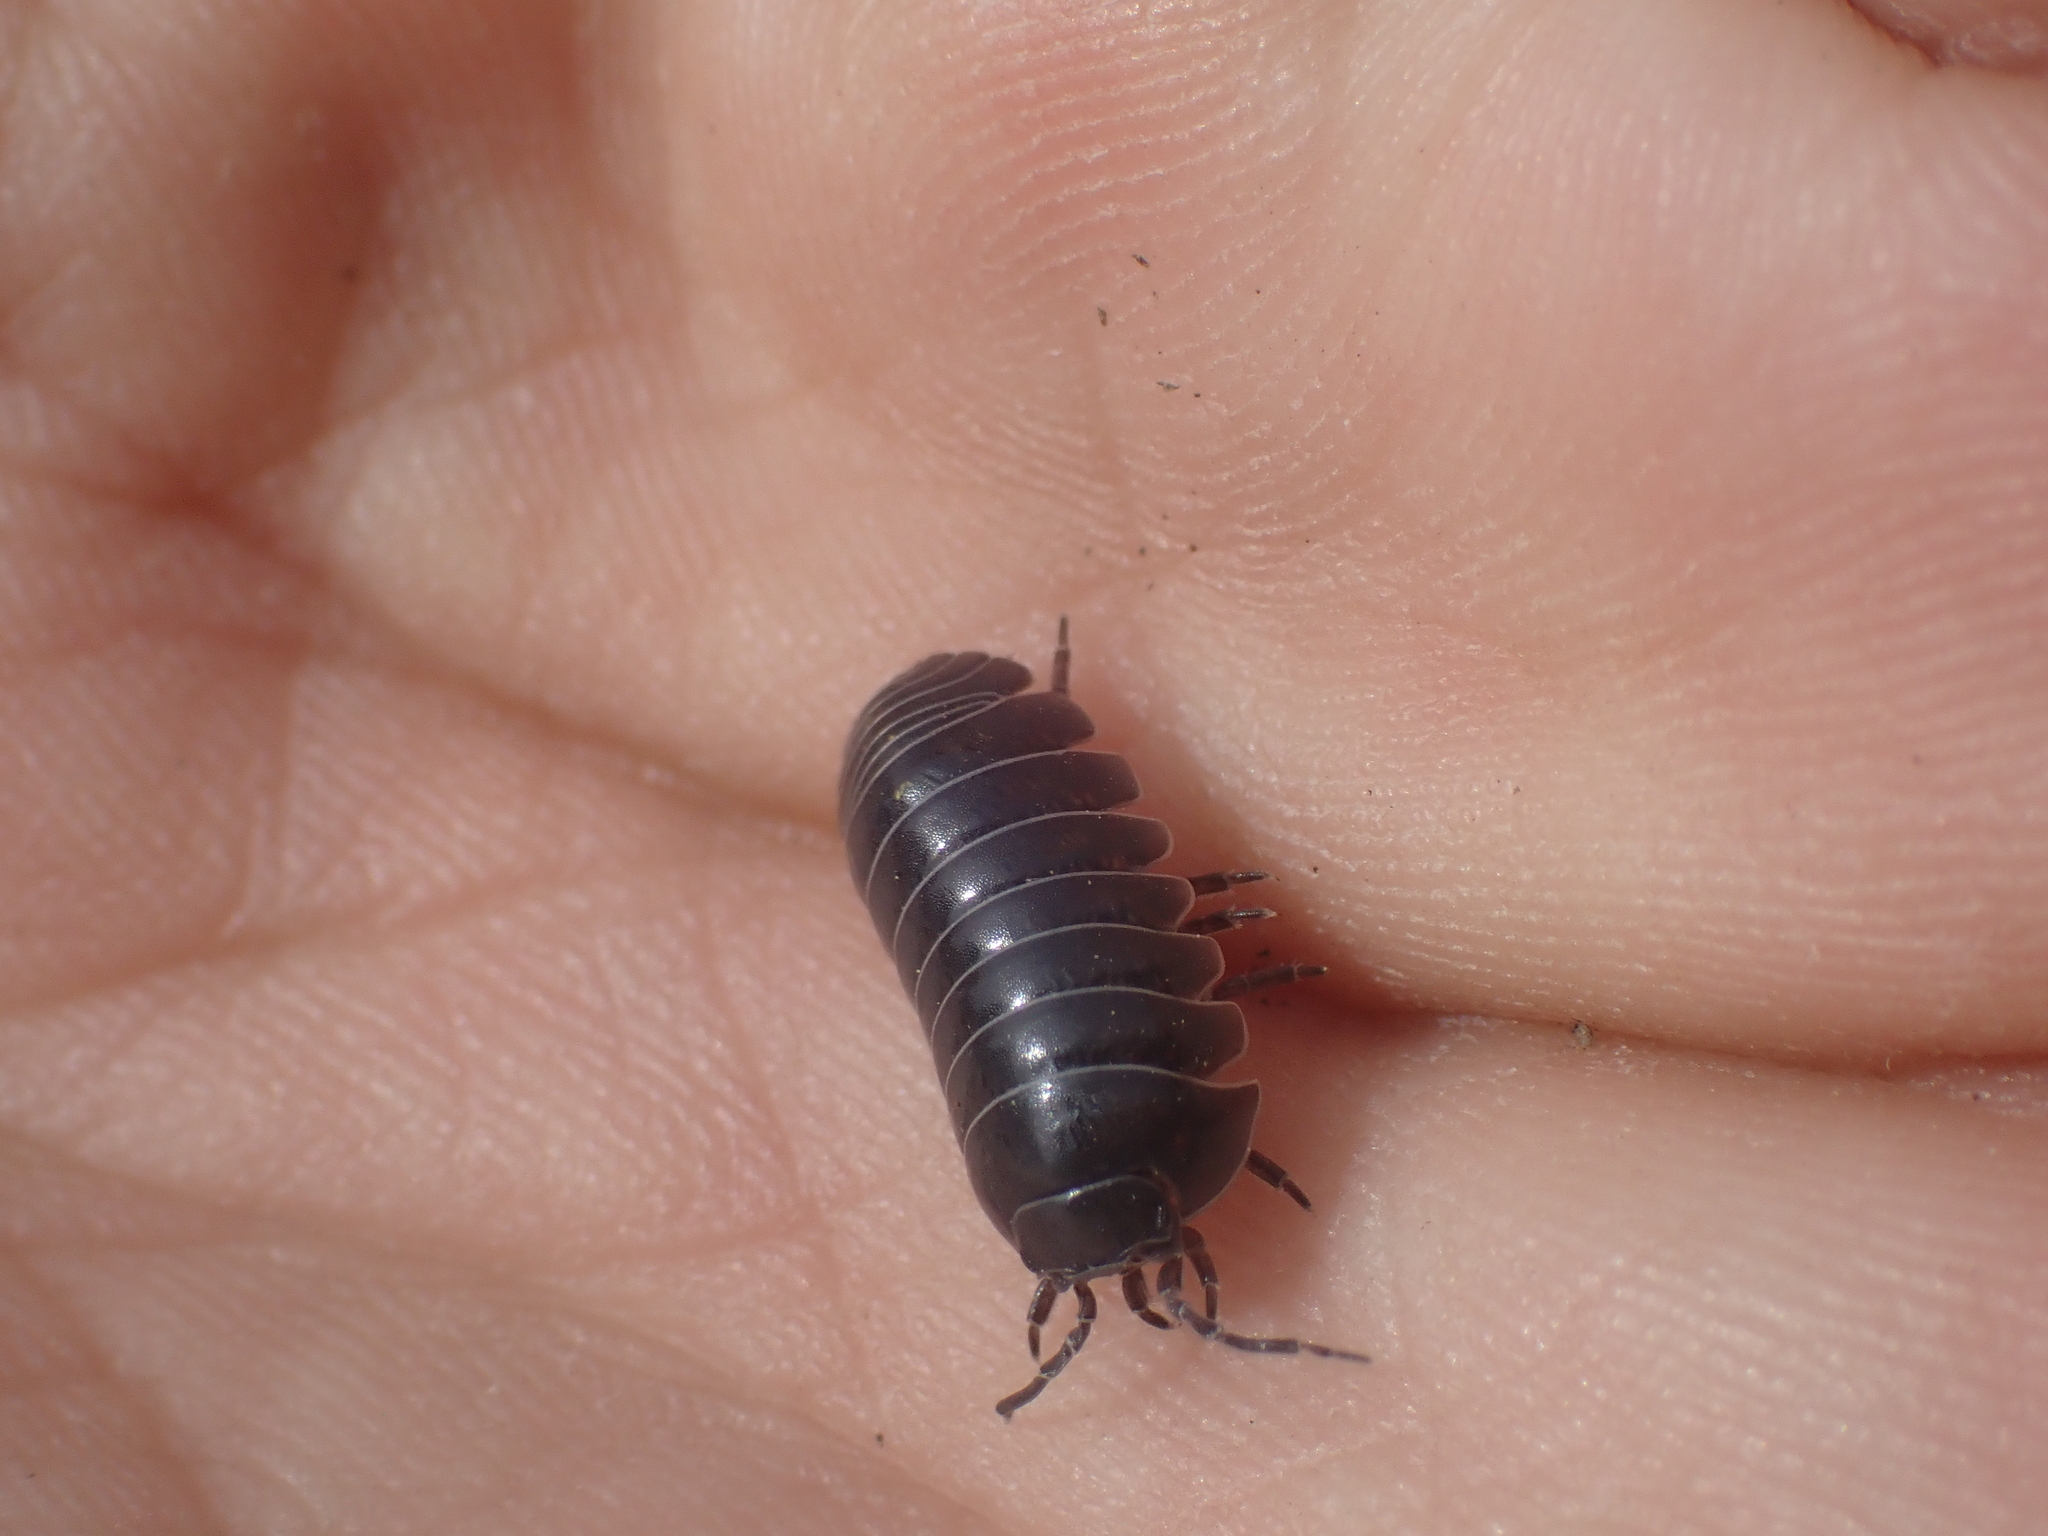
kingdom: Animalia
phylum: Arthropoda
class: Malacostraca
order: Isopoda
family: Armadillidiidae
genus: Armadillidium
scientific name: Armadillidium vulgare
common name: Common pill woodlouse
